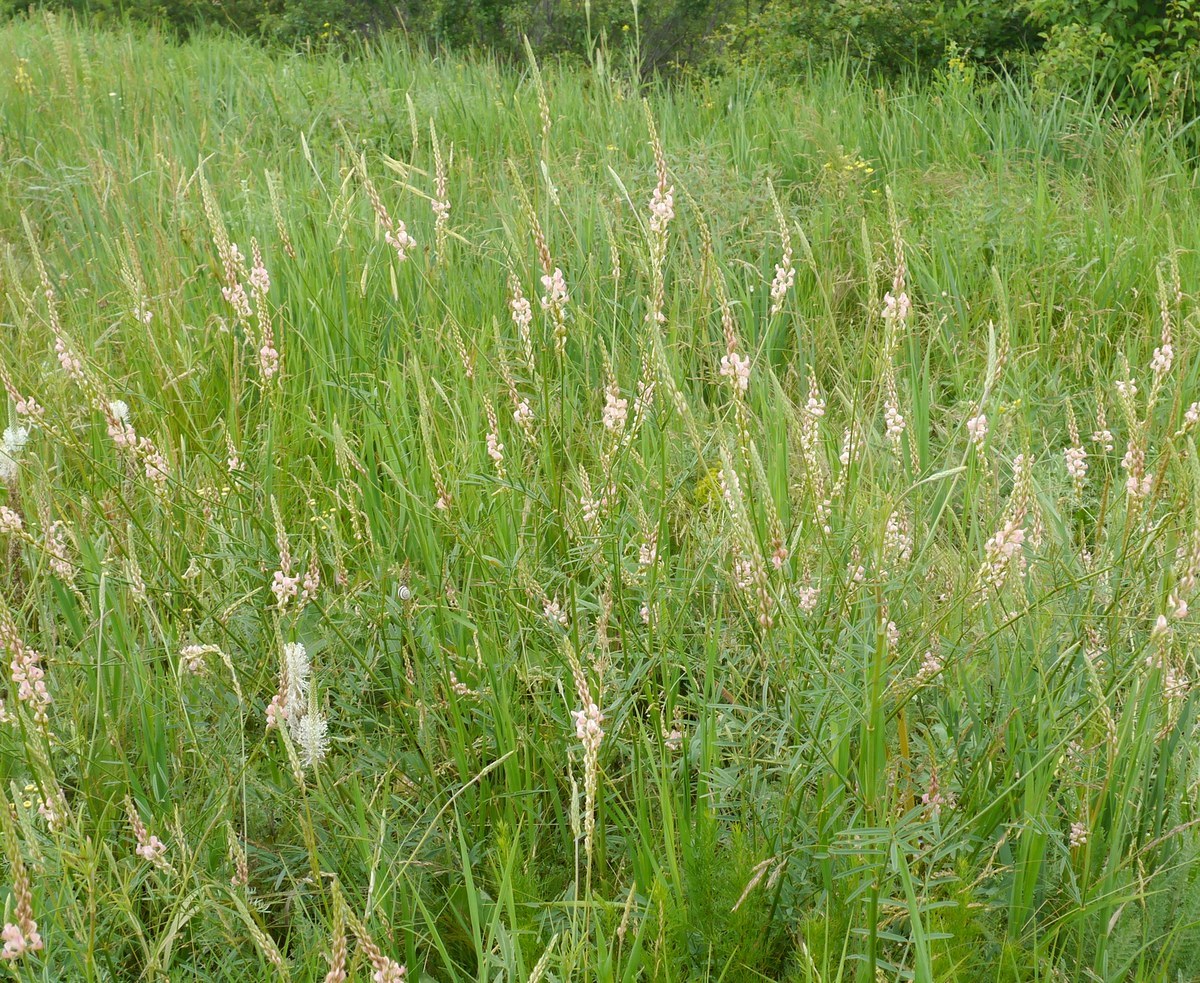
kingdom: Plantae
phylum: Tracheophyta
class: Magnoliopsida
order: Fabales
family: Fabaceae
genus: Onobrychis
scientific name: Onobrychis arenaria
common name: Sand esparcet
